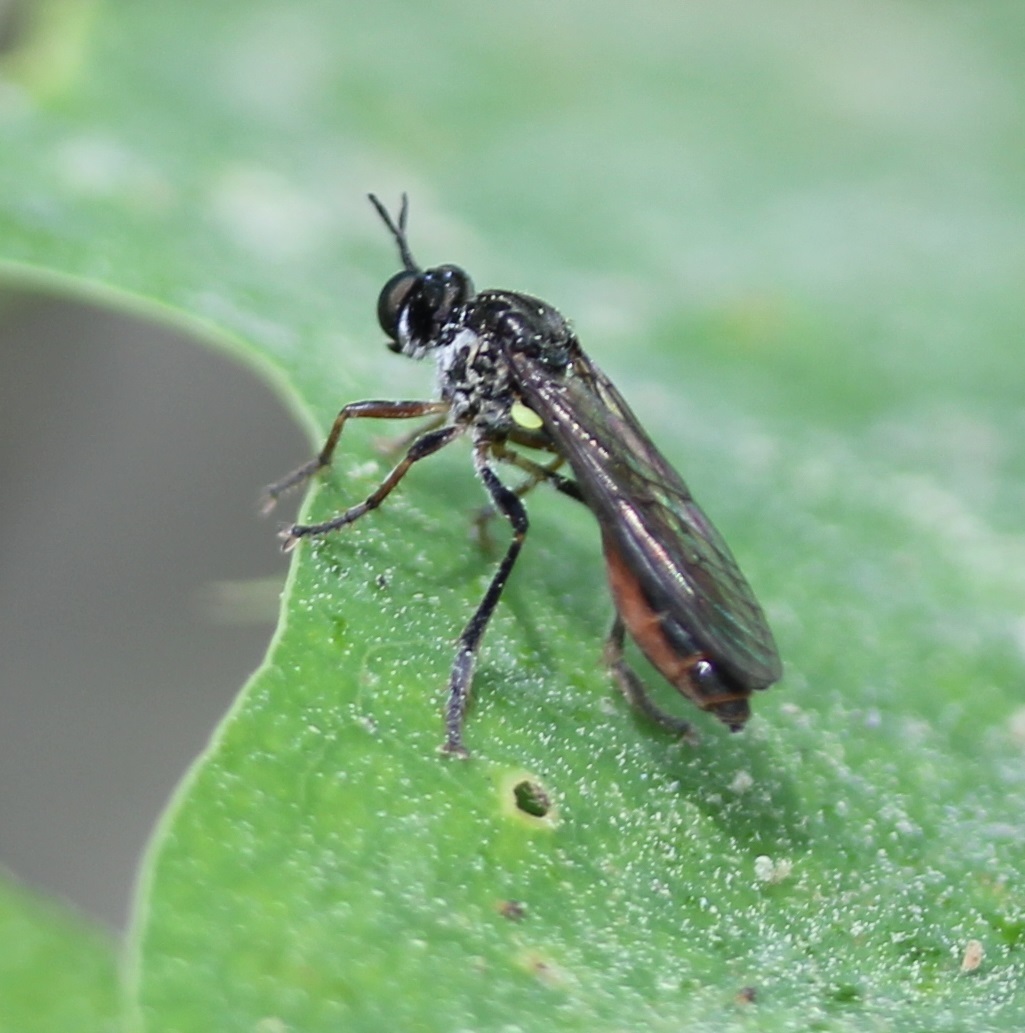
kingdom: Animalia
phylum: Arthropoda
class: Insecta
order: Diptera
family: Asilidae
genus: Dioctria
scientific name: Dioctria hyalipennis
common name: Stripe-legged robberfly
